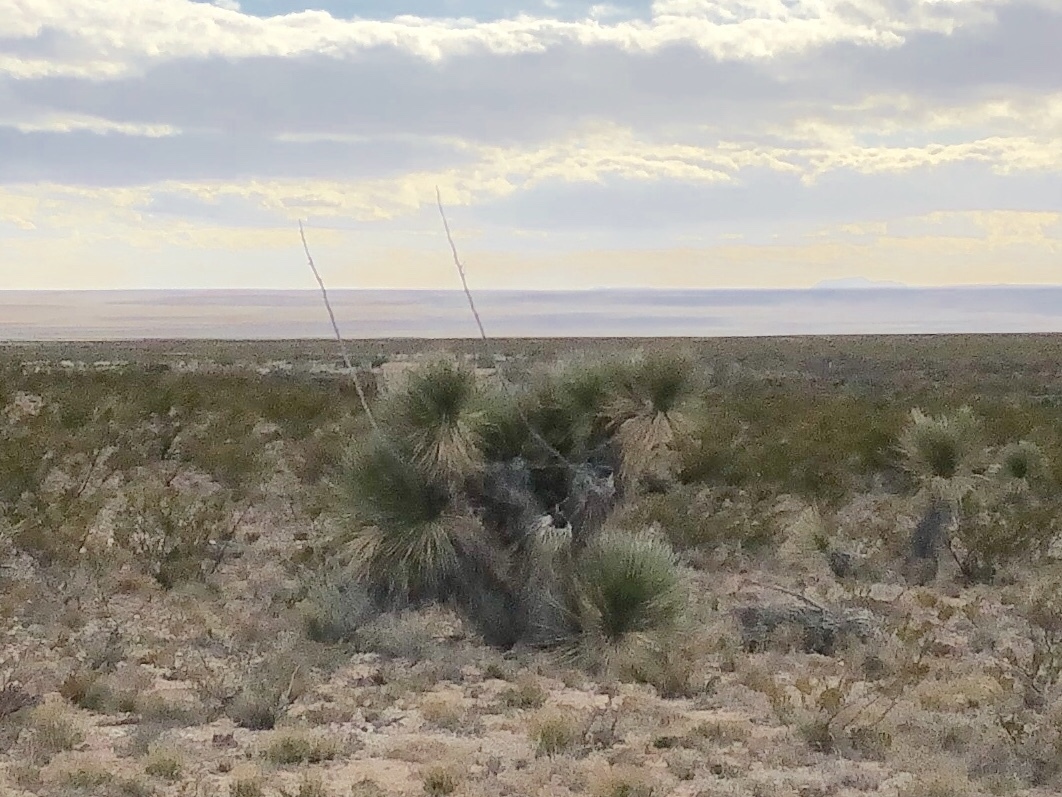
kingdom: Plantae
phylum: Tracheophyta
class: Liliopsida
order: Asparagales
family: Asparagaceae
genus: Yucca
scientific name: Yucca elata
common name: Palmella
